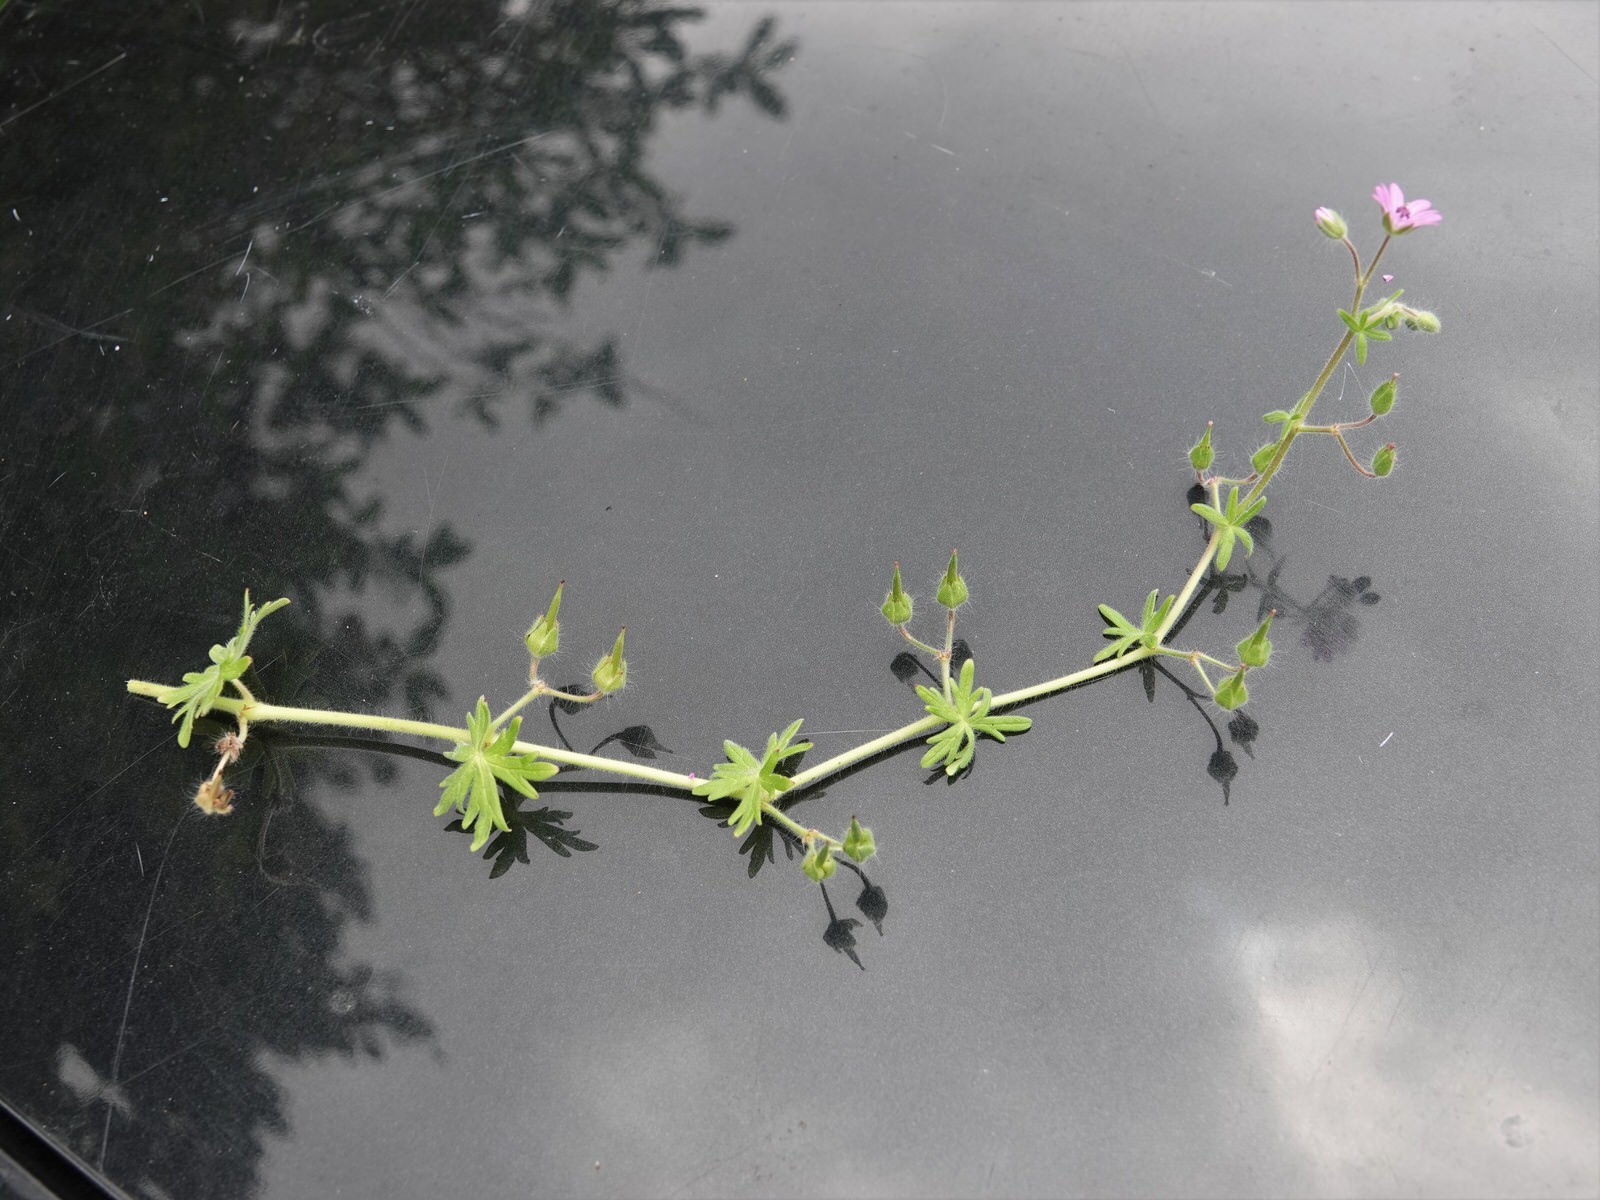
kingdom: Plantae
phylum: Tracheophyta
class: Magnoliopsida
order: Geraniales
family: Geraniaceae
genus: Geranium
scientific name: Geranium molle
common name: Dove's-foot crane's-bill
